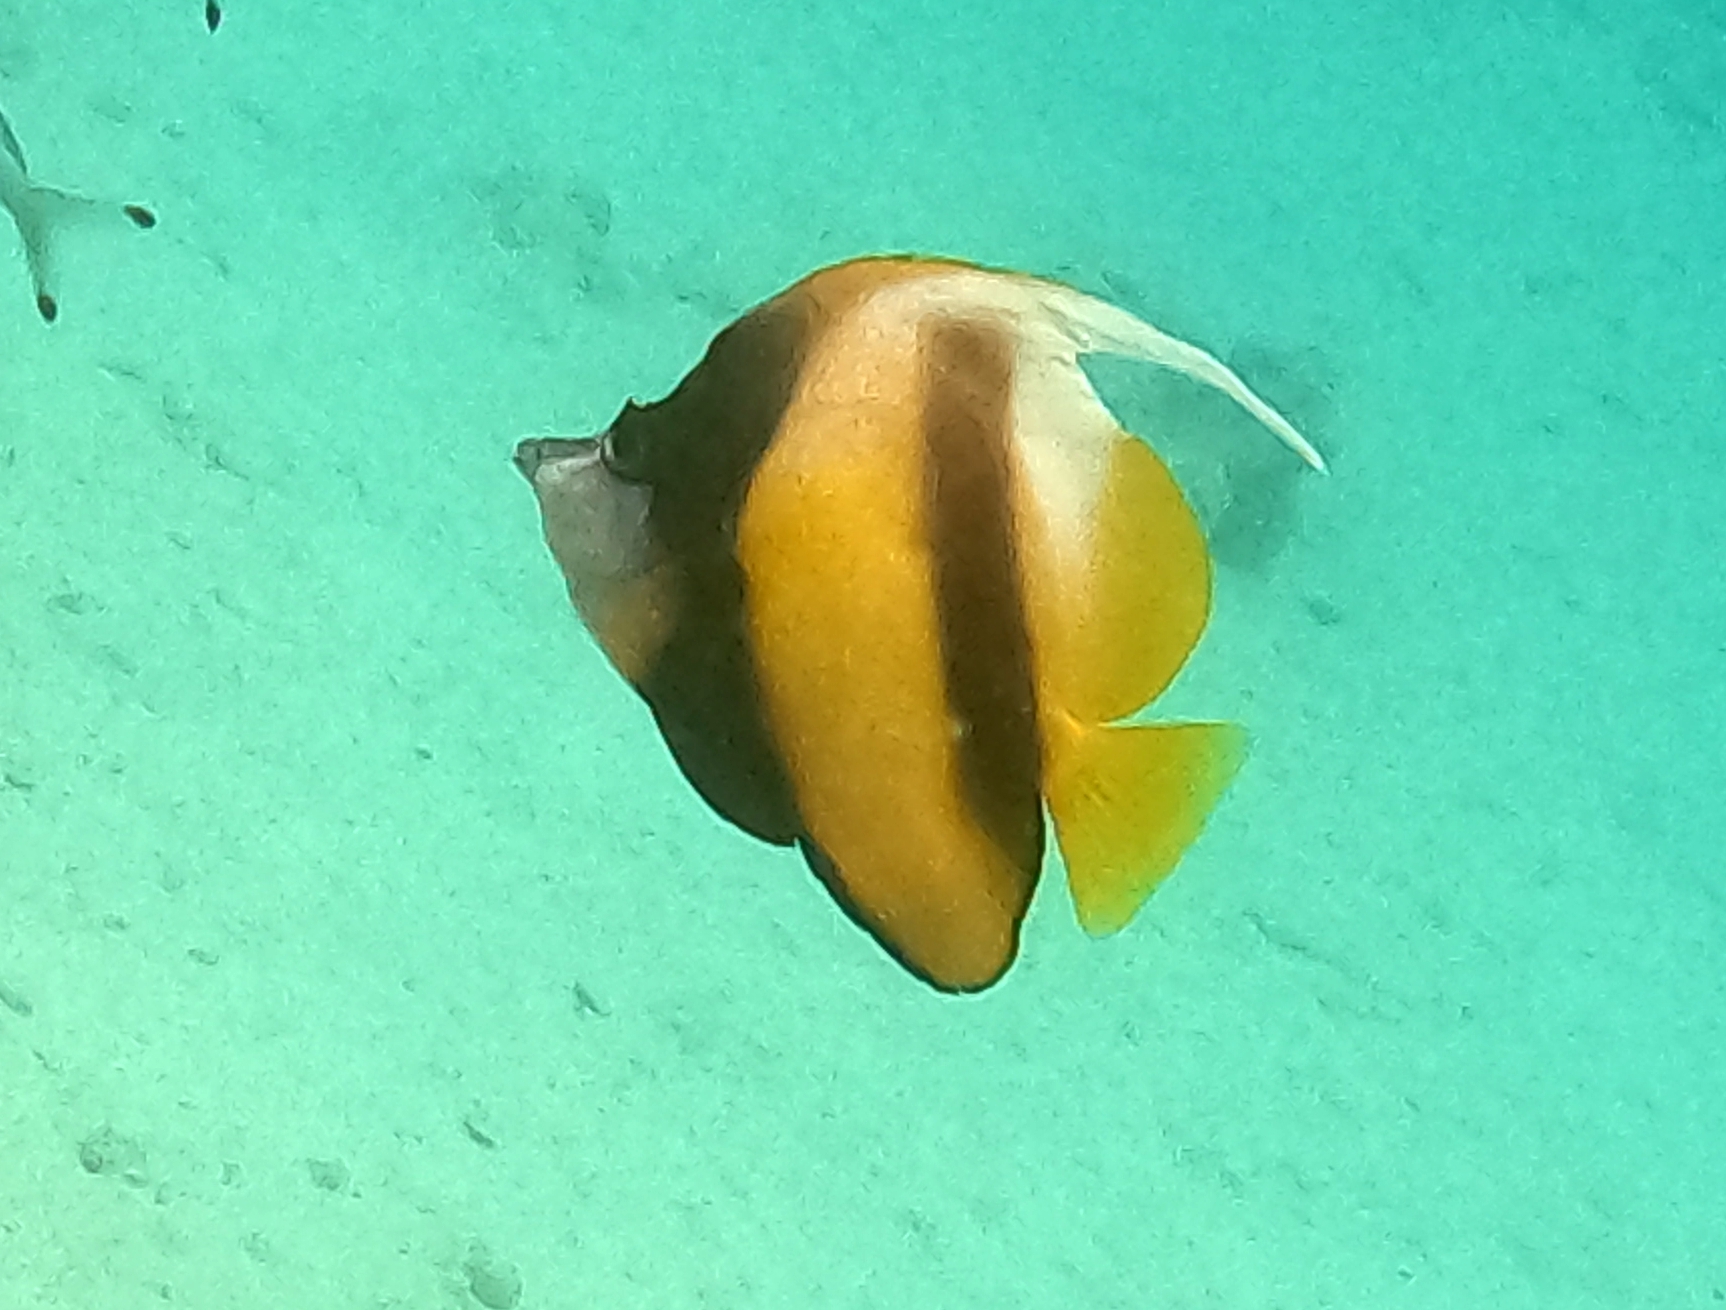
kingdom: Animalia
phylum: Chordata
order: Perciformes
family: Chaetodontidae
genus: Heniochus
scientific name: Heniochus intermedius
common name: Red sea bannerfish
